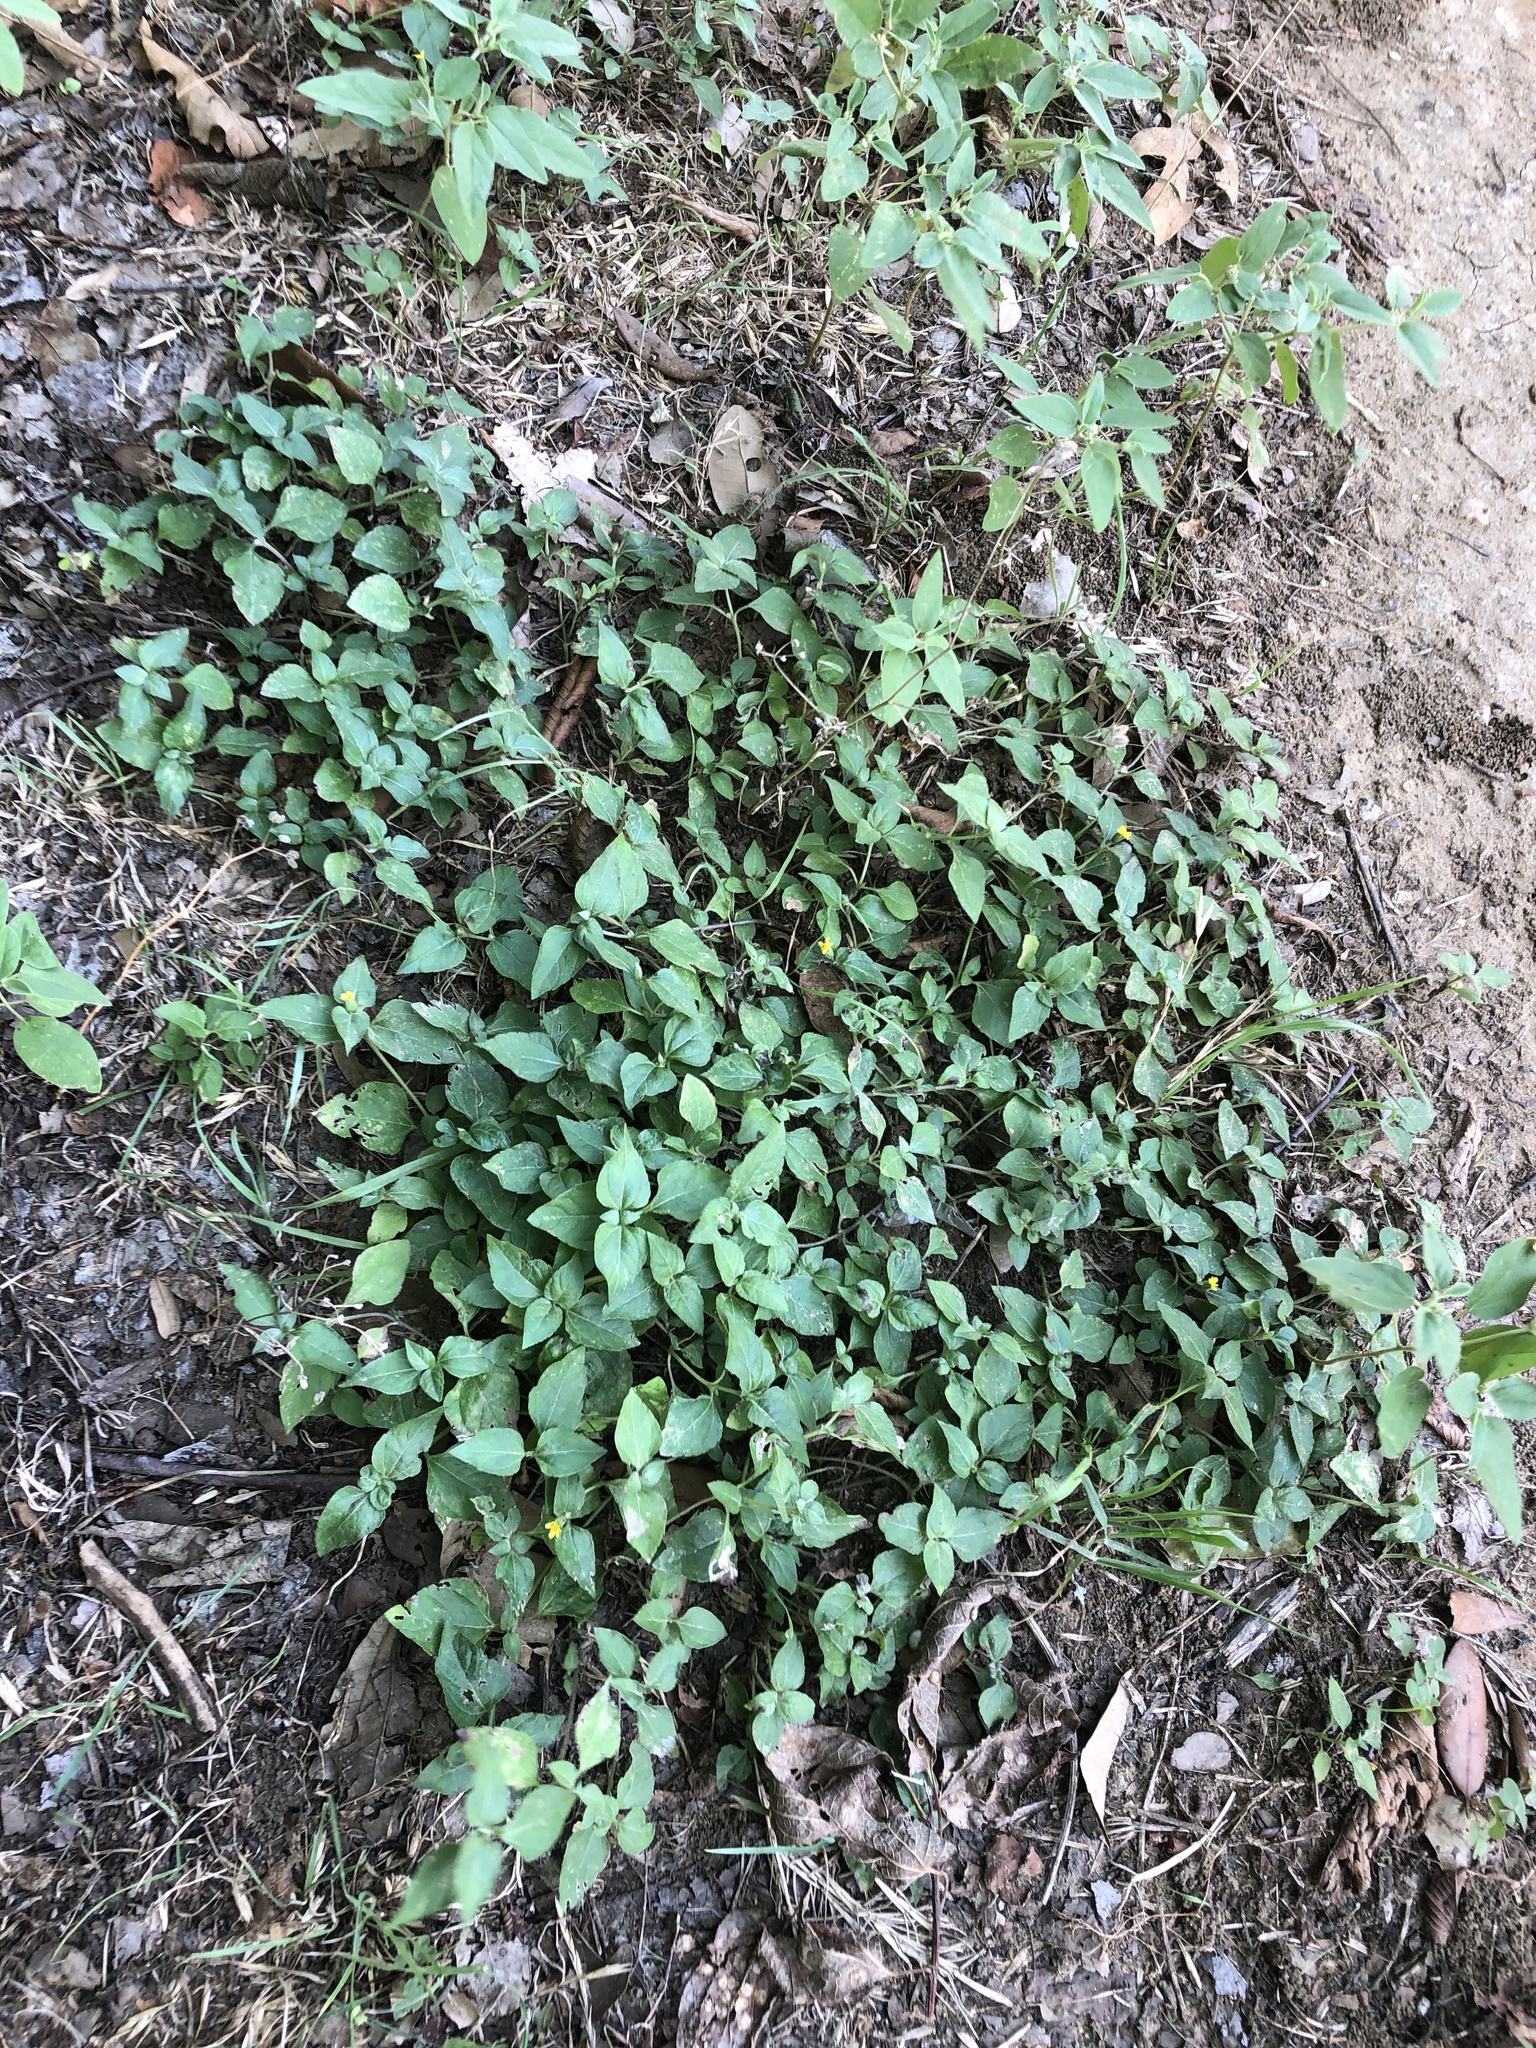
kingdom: Plantae
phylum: Tracheophyta
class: Magnoliopsida
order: Asterales
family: Asteraceae
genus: Calyptocarpus
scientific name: Calyptocarpus vialis
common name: Straggler daisy
